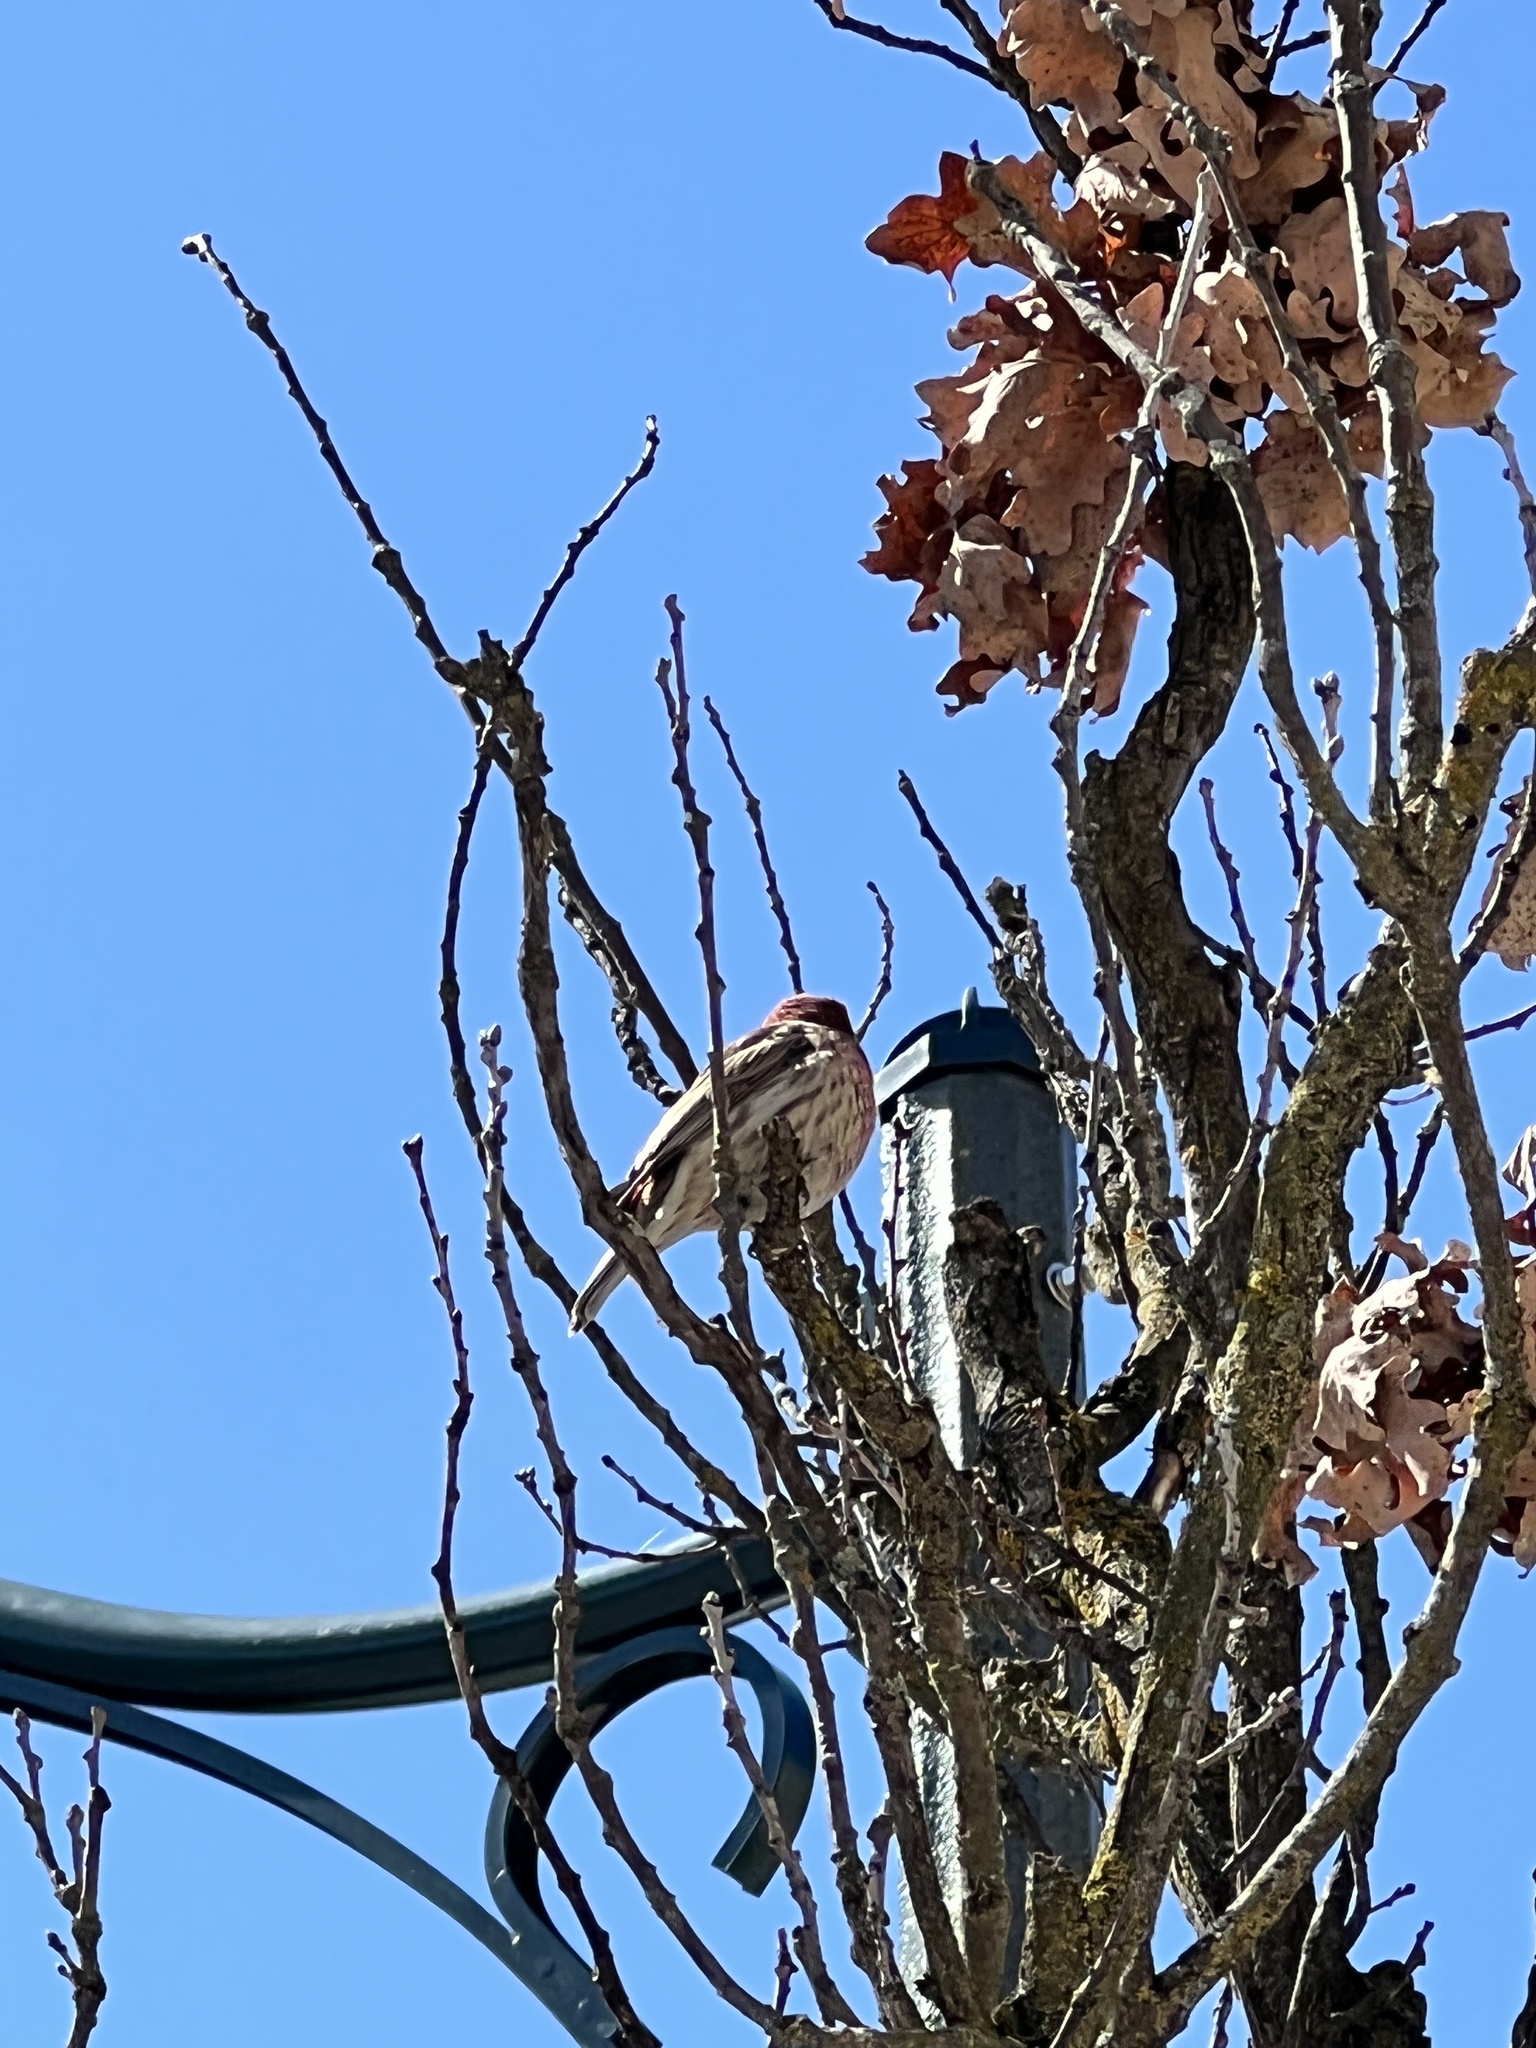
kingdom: Animalia
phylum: Chordata
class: Aves
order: Passeriformes
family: Fringillidae
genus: Haemorhous
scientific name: Haemorhous mexicanus
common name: House finch
